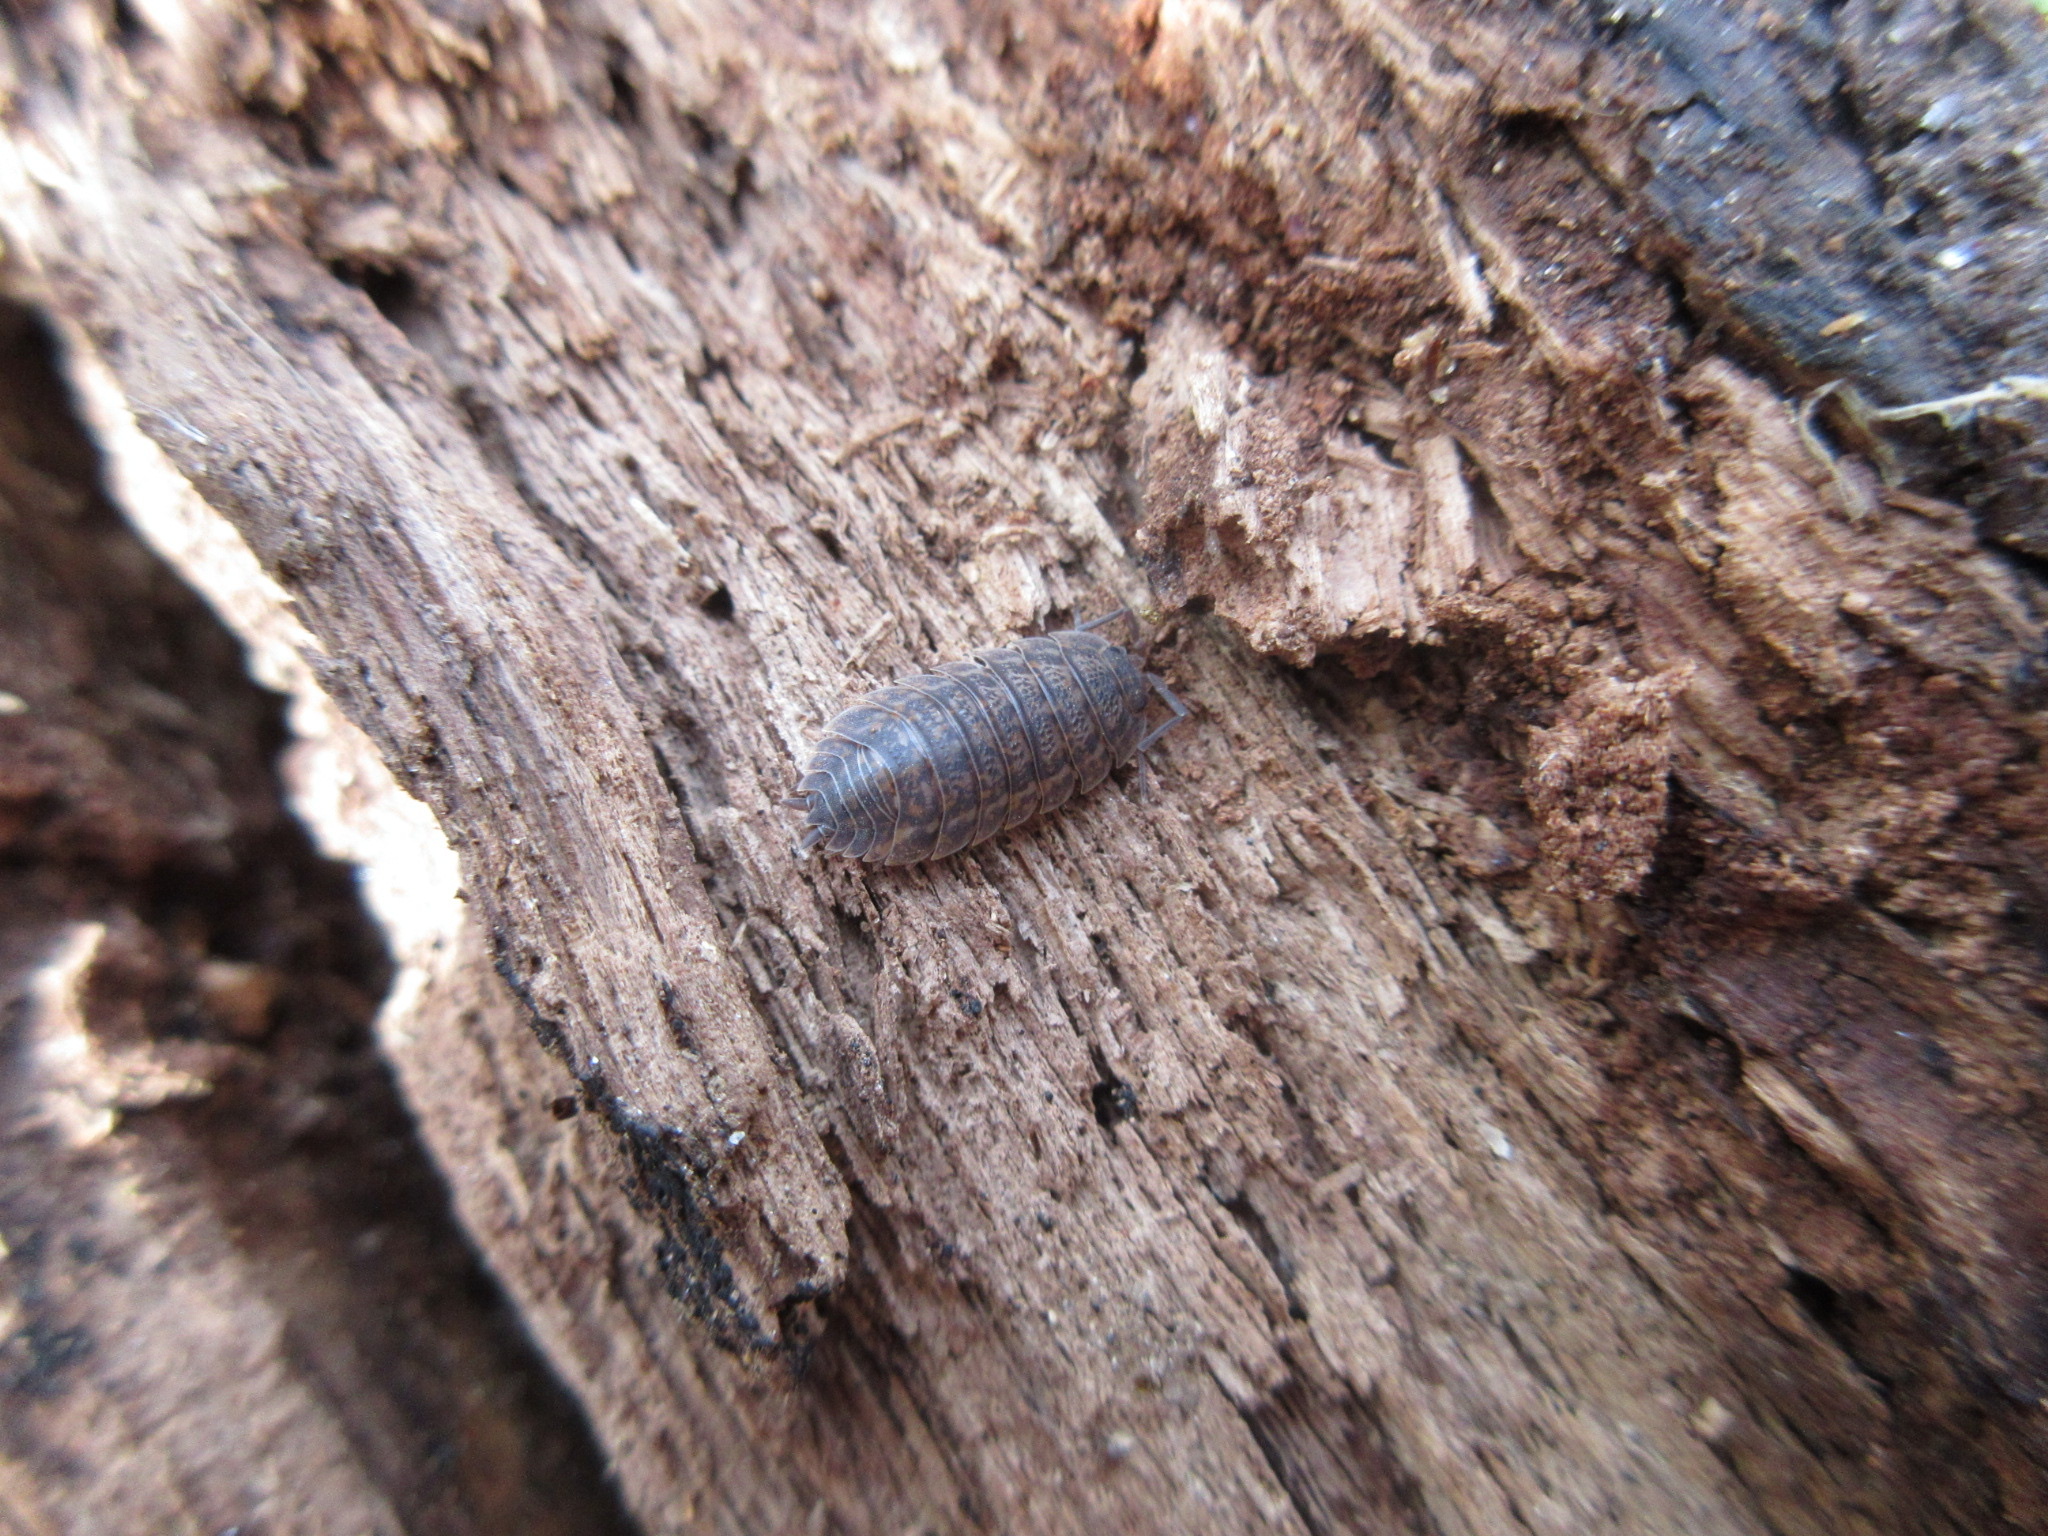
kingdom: Animalia
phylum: Arthropoda
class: Malacostraca
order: Isopoda
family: Trachelipodidae
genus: Trachelipus
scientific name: Trachelipus rathkii
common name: Isopod
